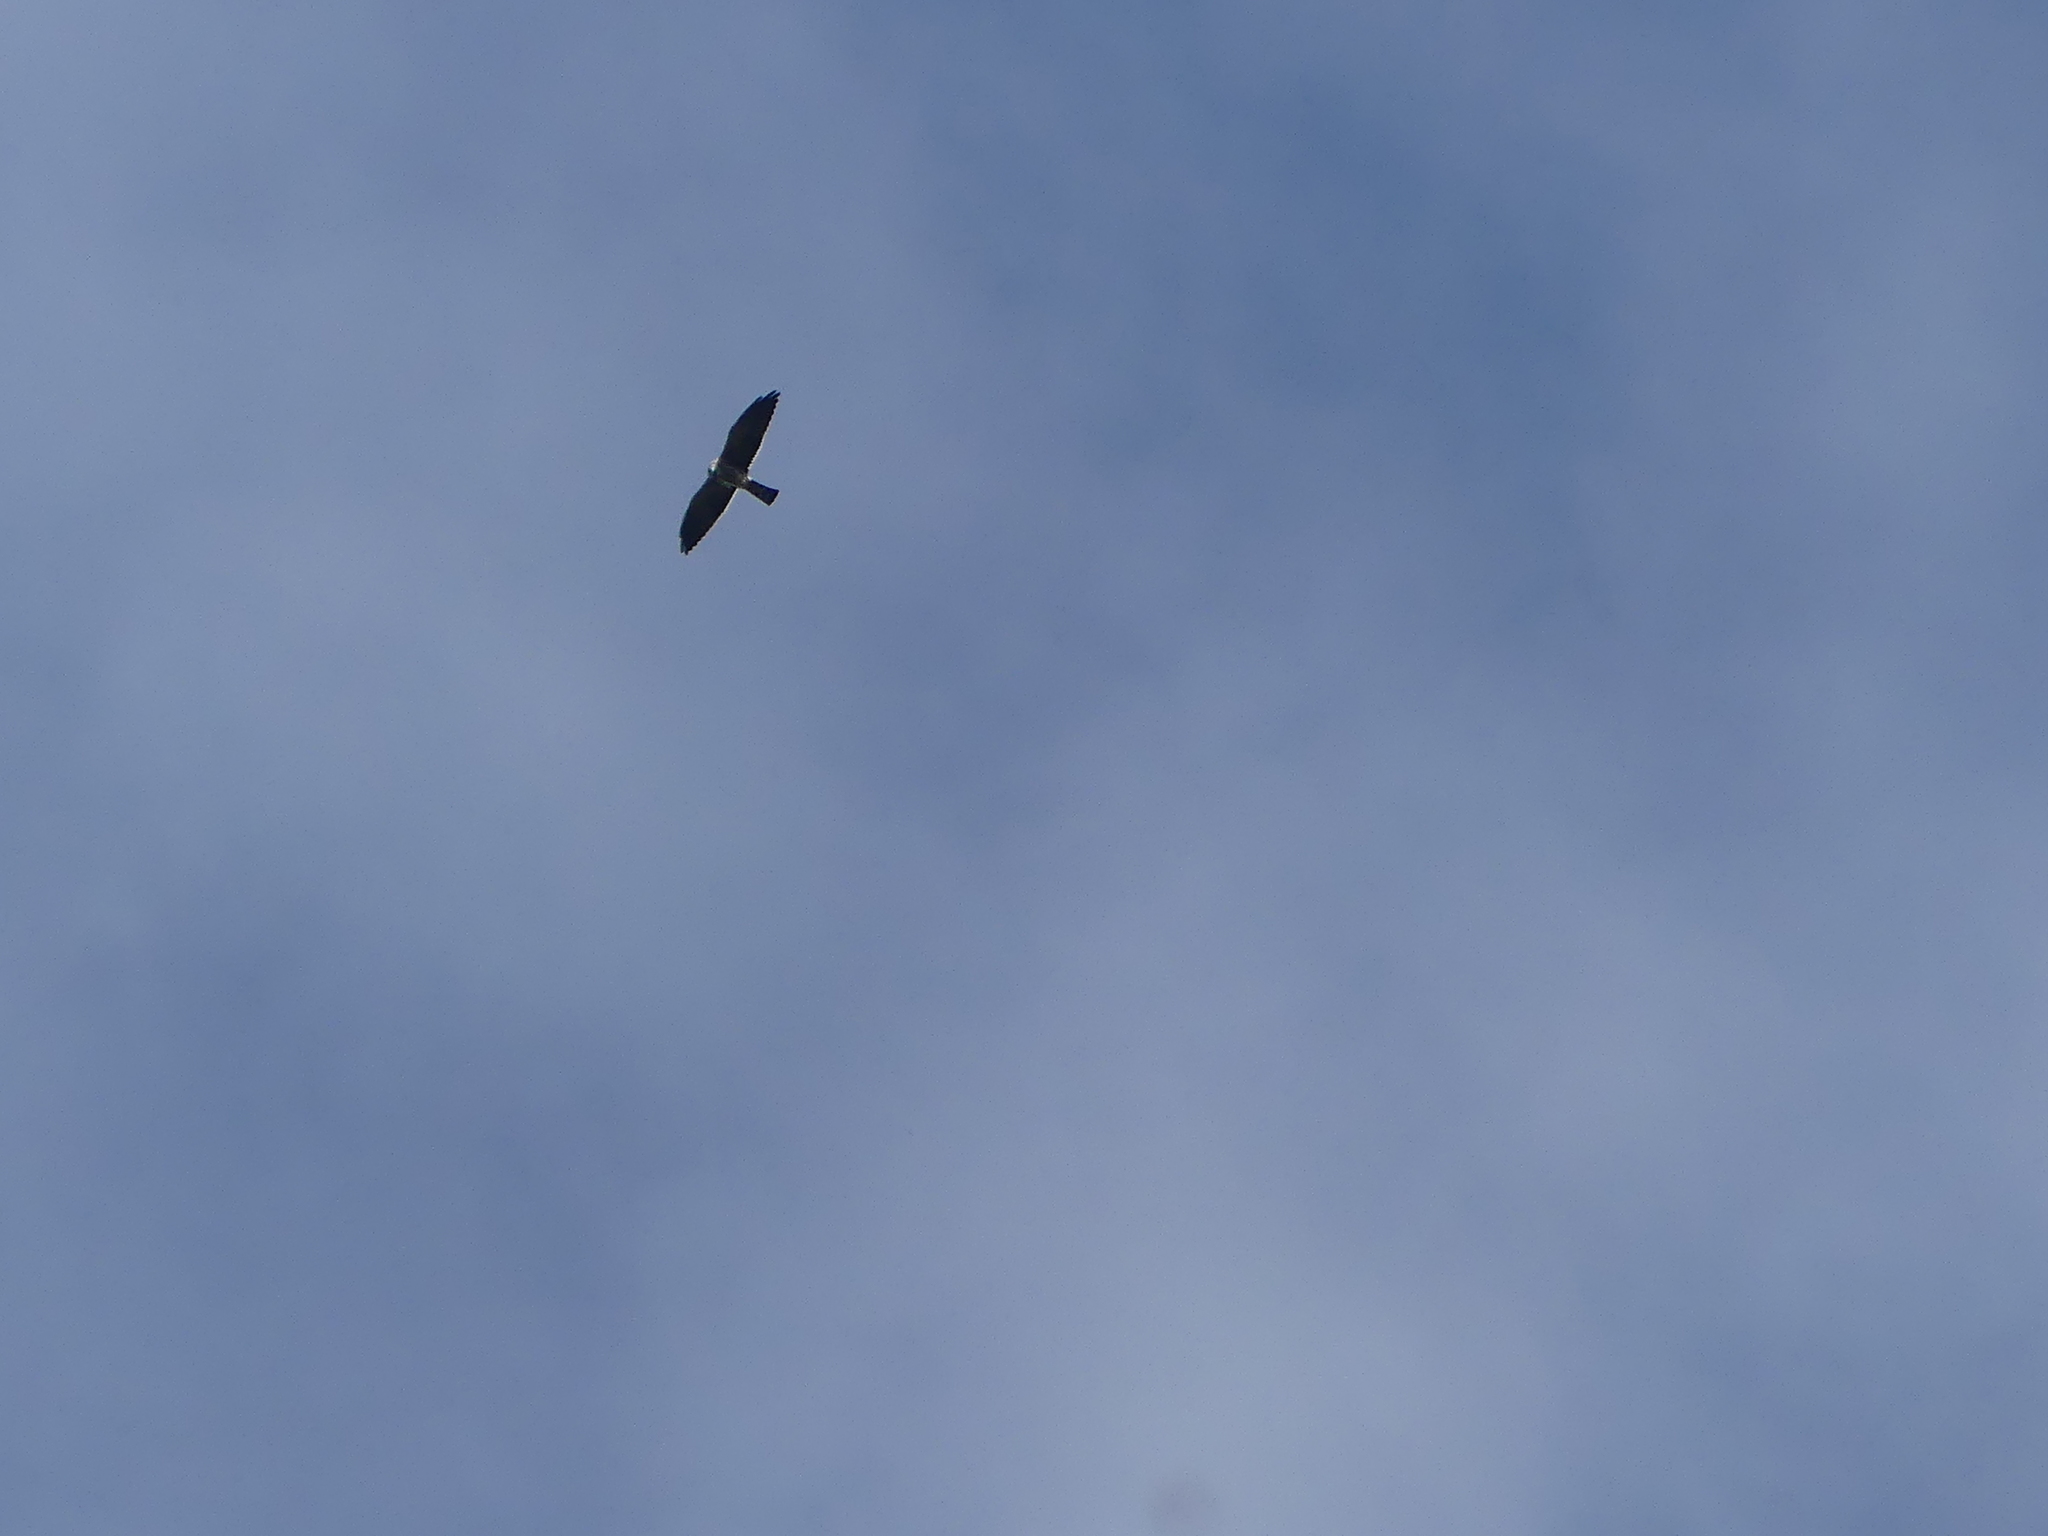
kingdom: Animalia
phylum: Chordata
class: Aves
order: Accipitriformes
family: Accipitridae
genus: Ictinia
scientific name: Ictinia mississippiensis
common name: Mississippi kite
